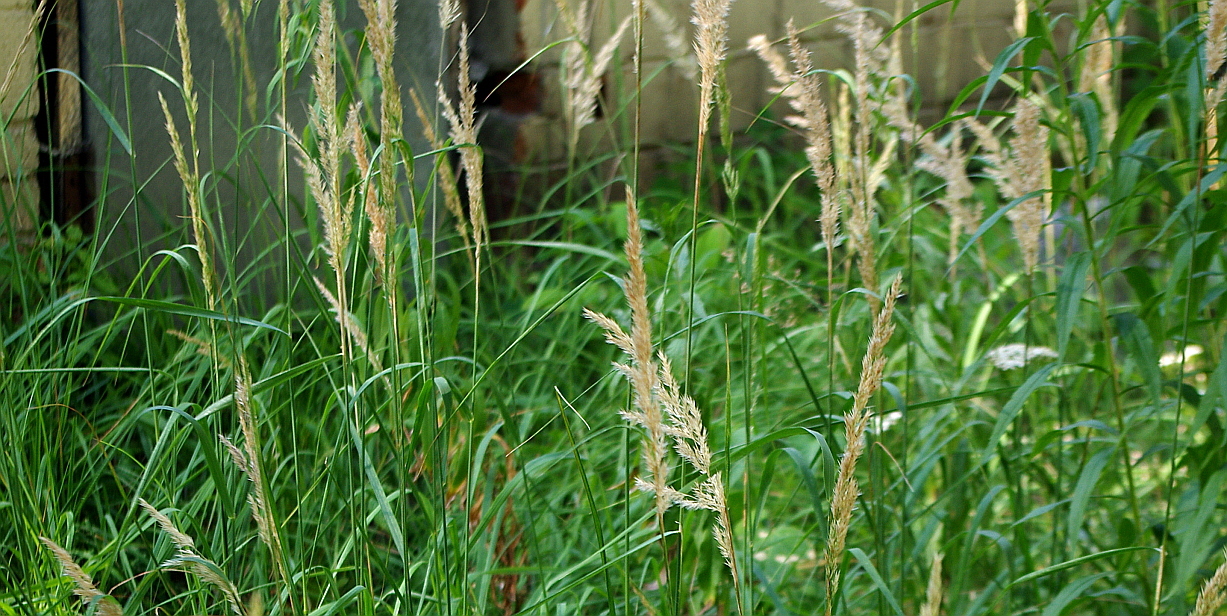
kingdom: Plantae
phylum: Tracheophyta
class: Liliopsida
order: Poales
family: Poaceae
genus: Calamagrostis
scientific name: Calamagrostis epigejos
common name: Wood small-reed
